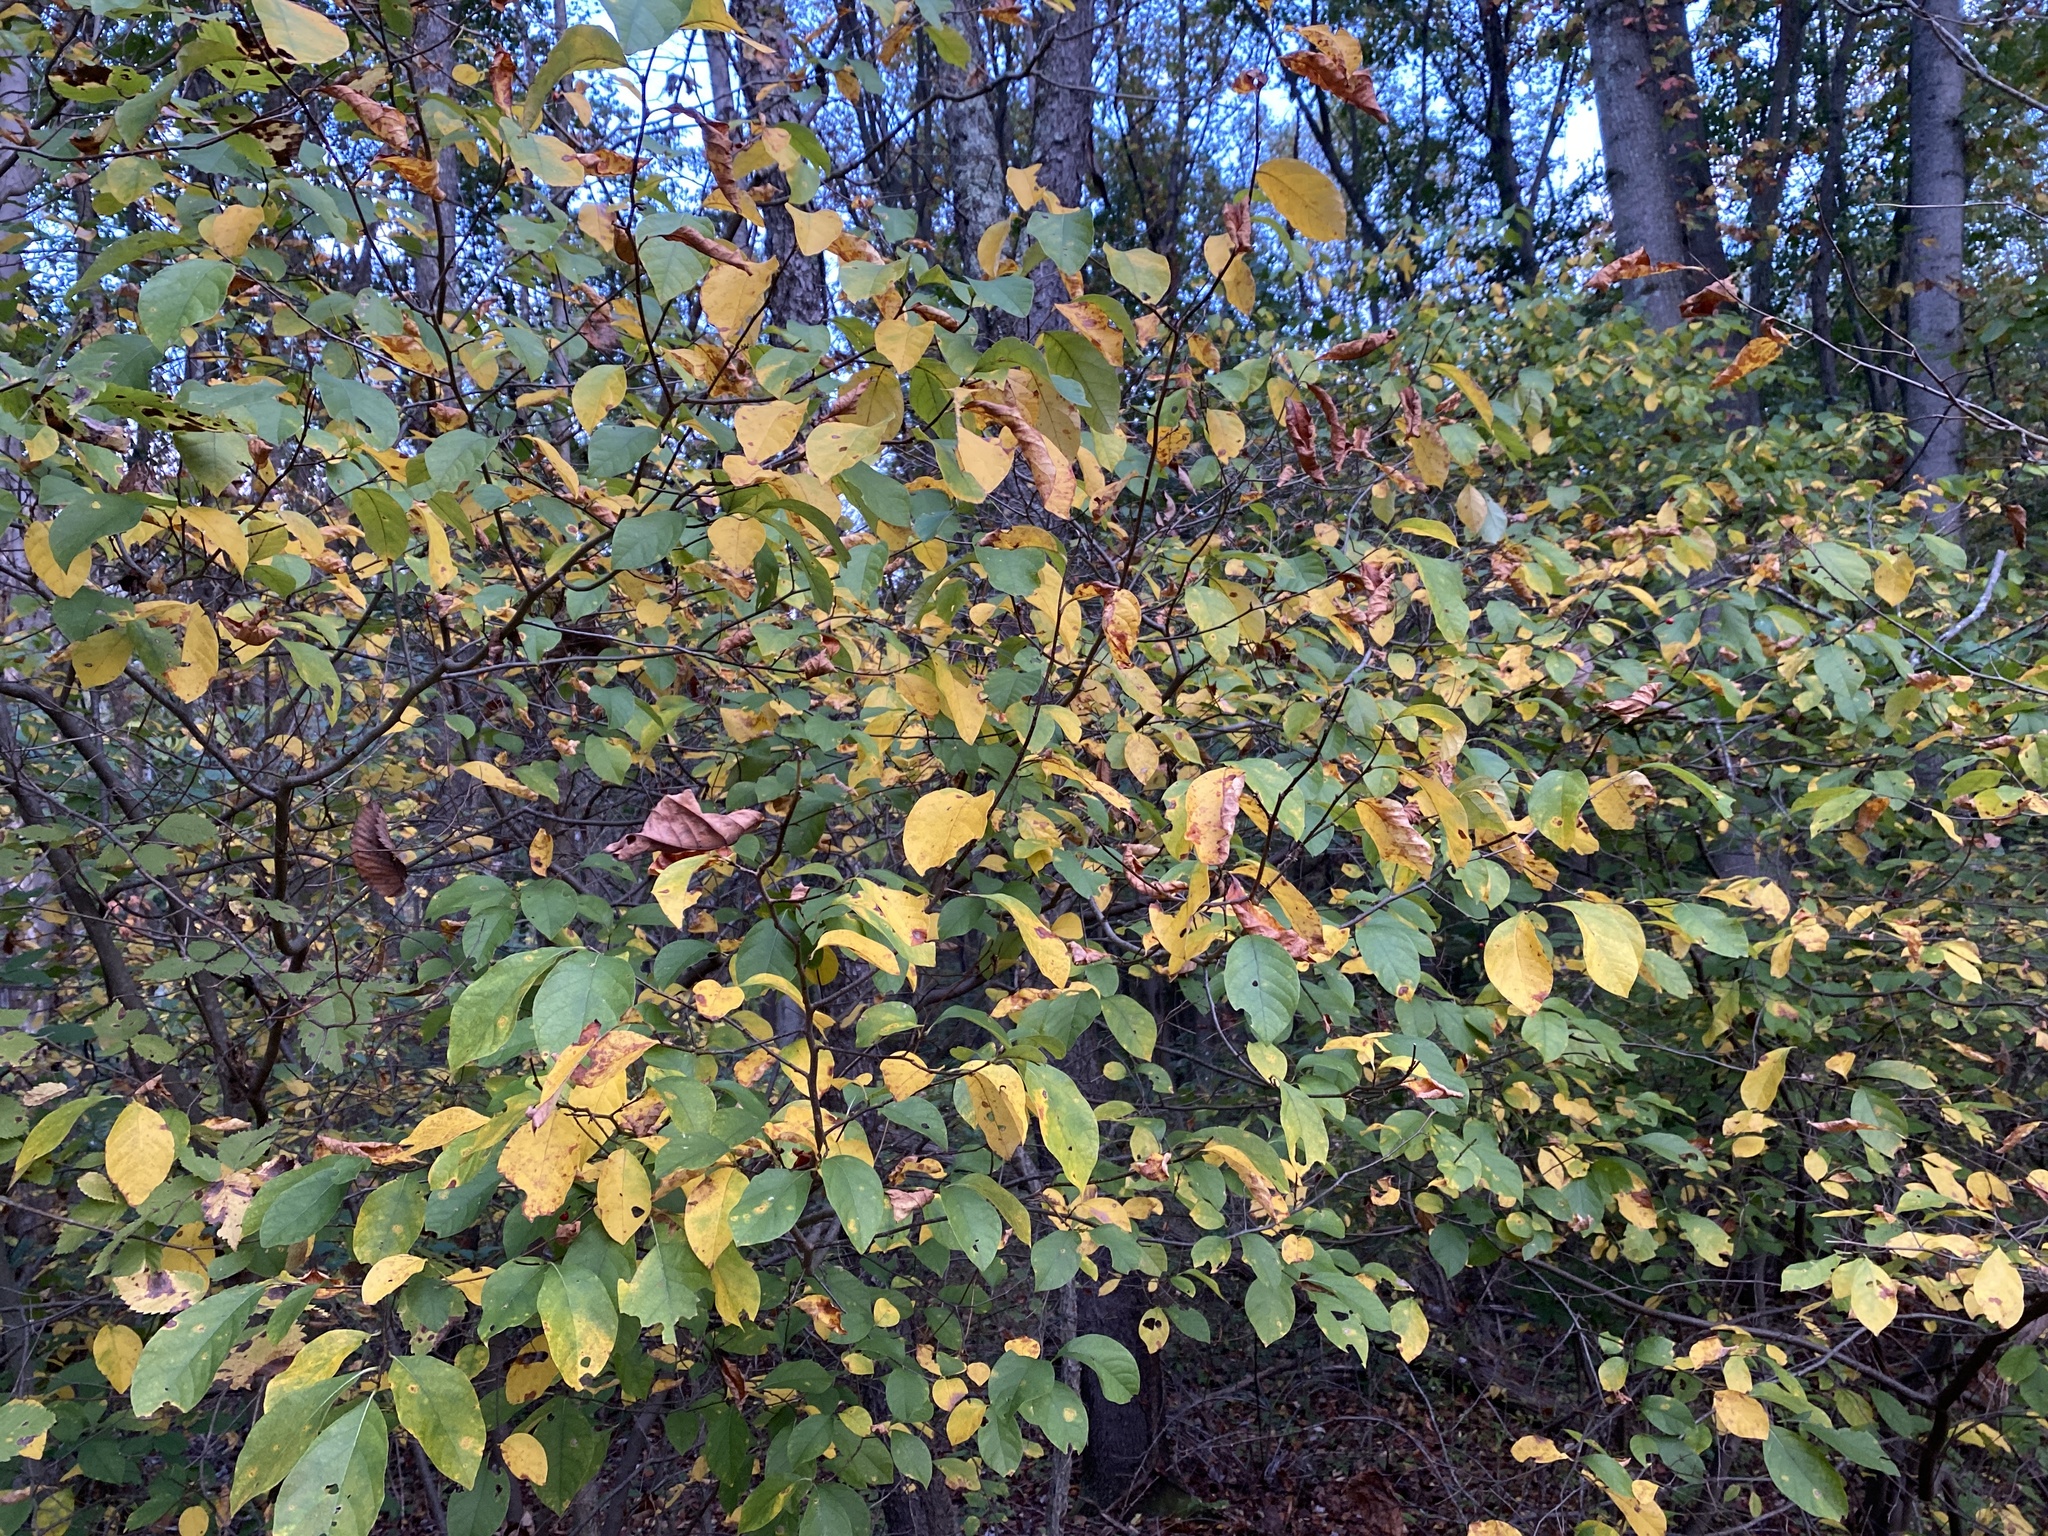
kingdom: Plantae
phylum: Tracheophyta
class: Magnoliopsida
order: Laurales
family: Lauraceae
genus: Lindera
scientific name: Lindera benzoin
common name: Spicebush
